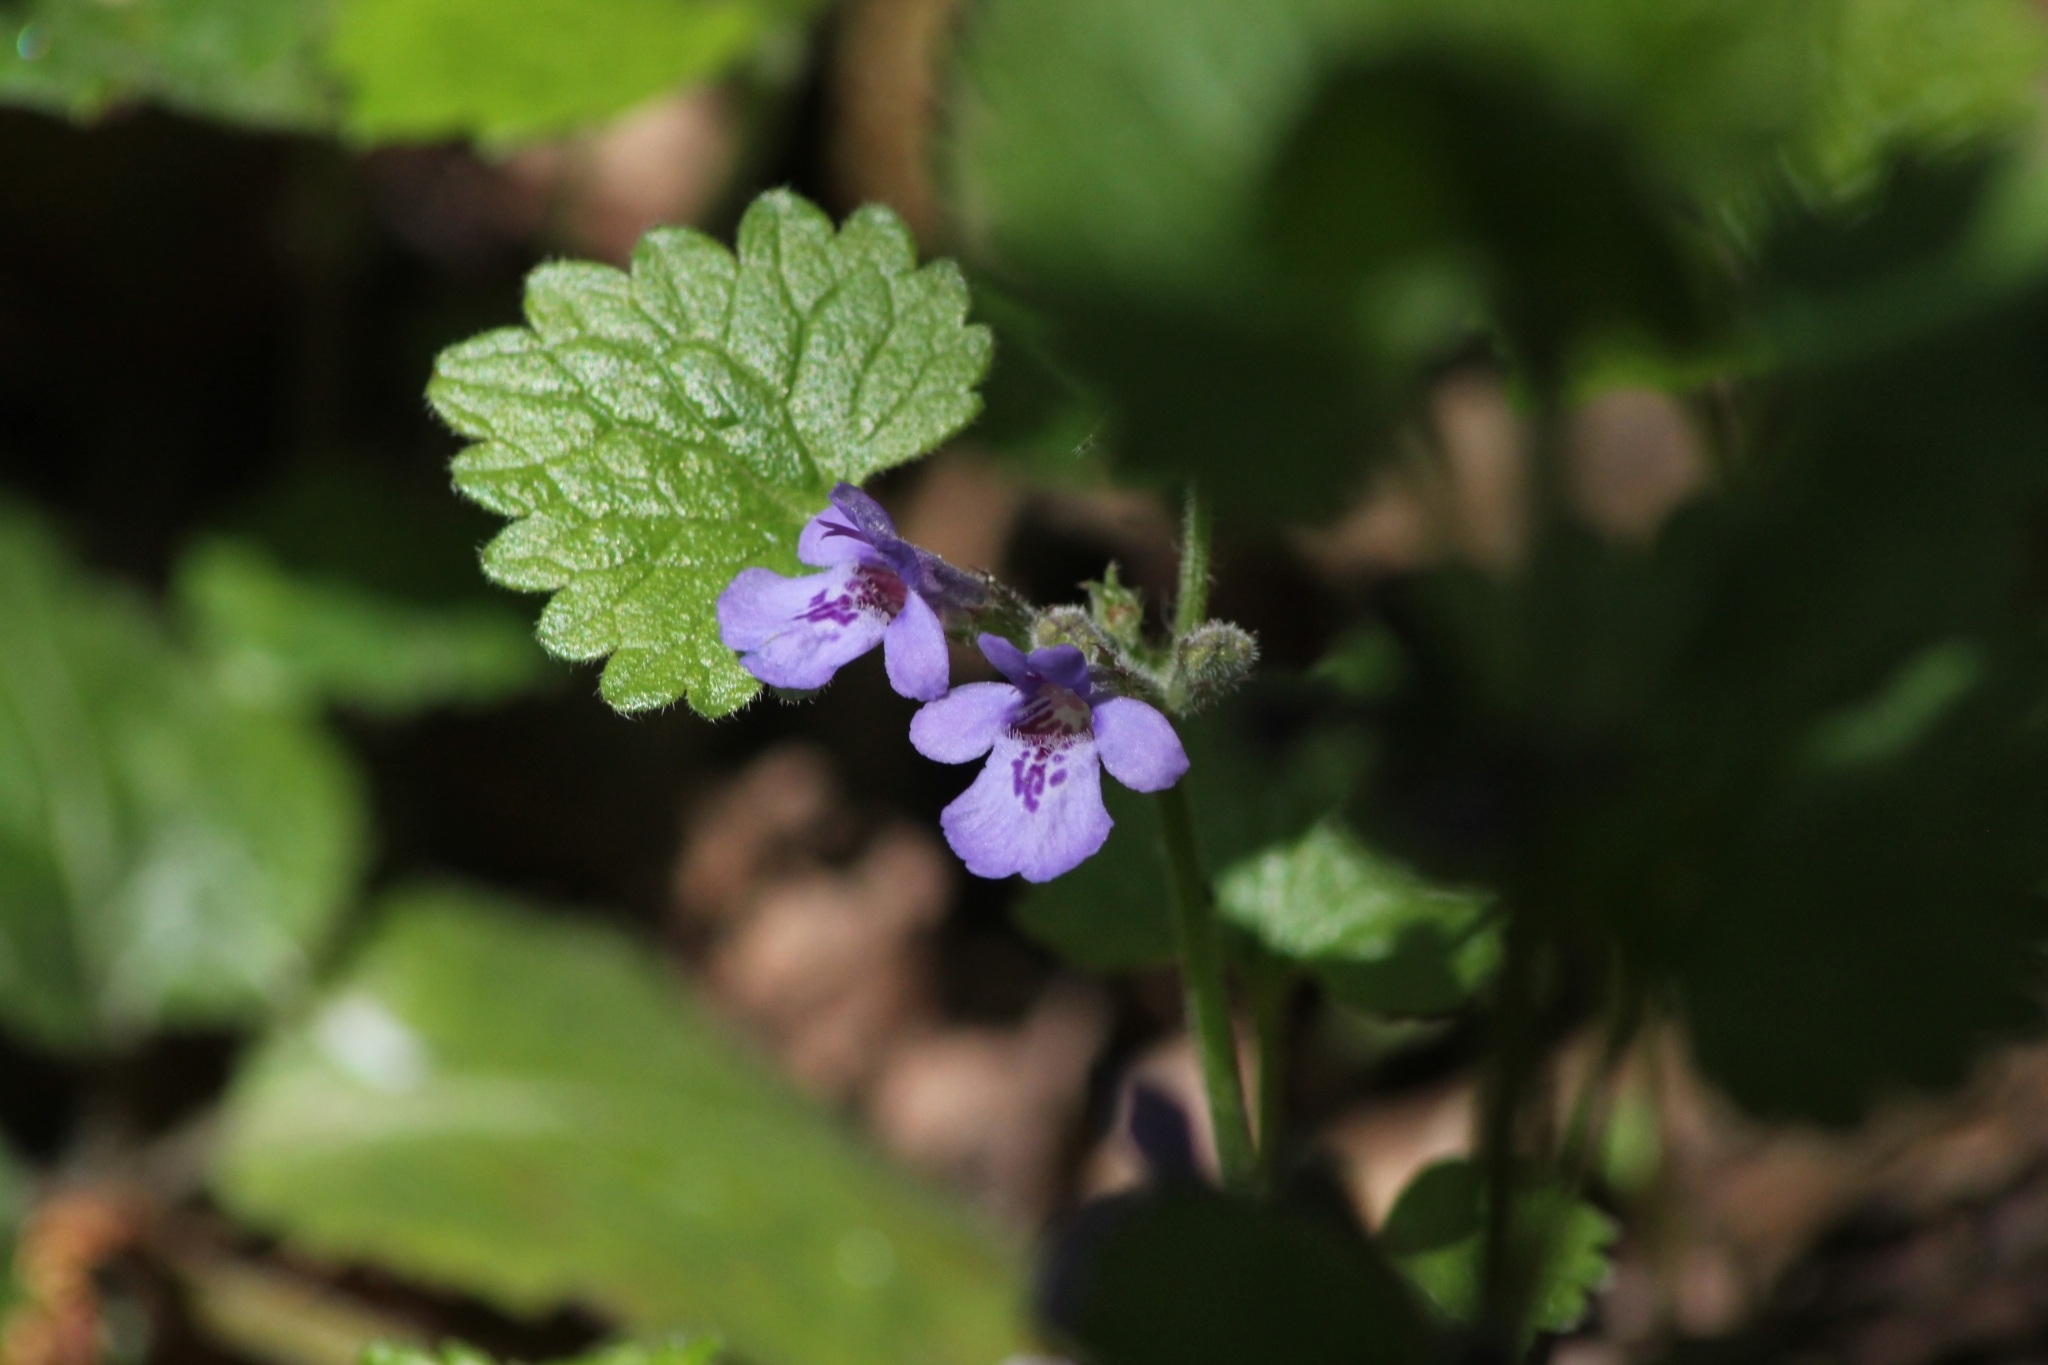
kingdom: Plantae
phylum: Tracheophyta
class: Magnoliopsida
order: Lamiales
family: Lamiaceae
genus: Glechoma
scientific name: Glechoma hederacea
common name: Ground ivy
